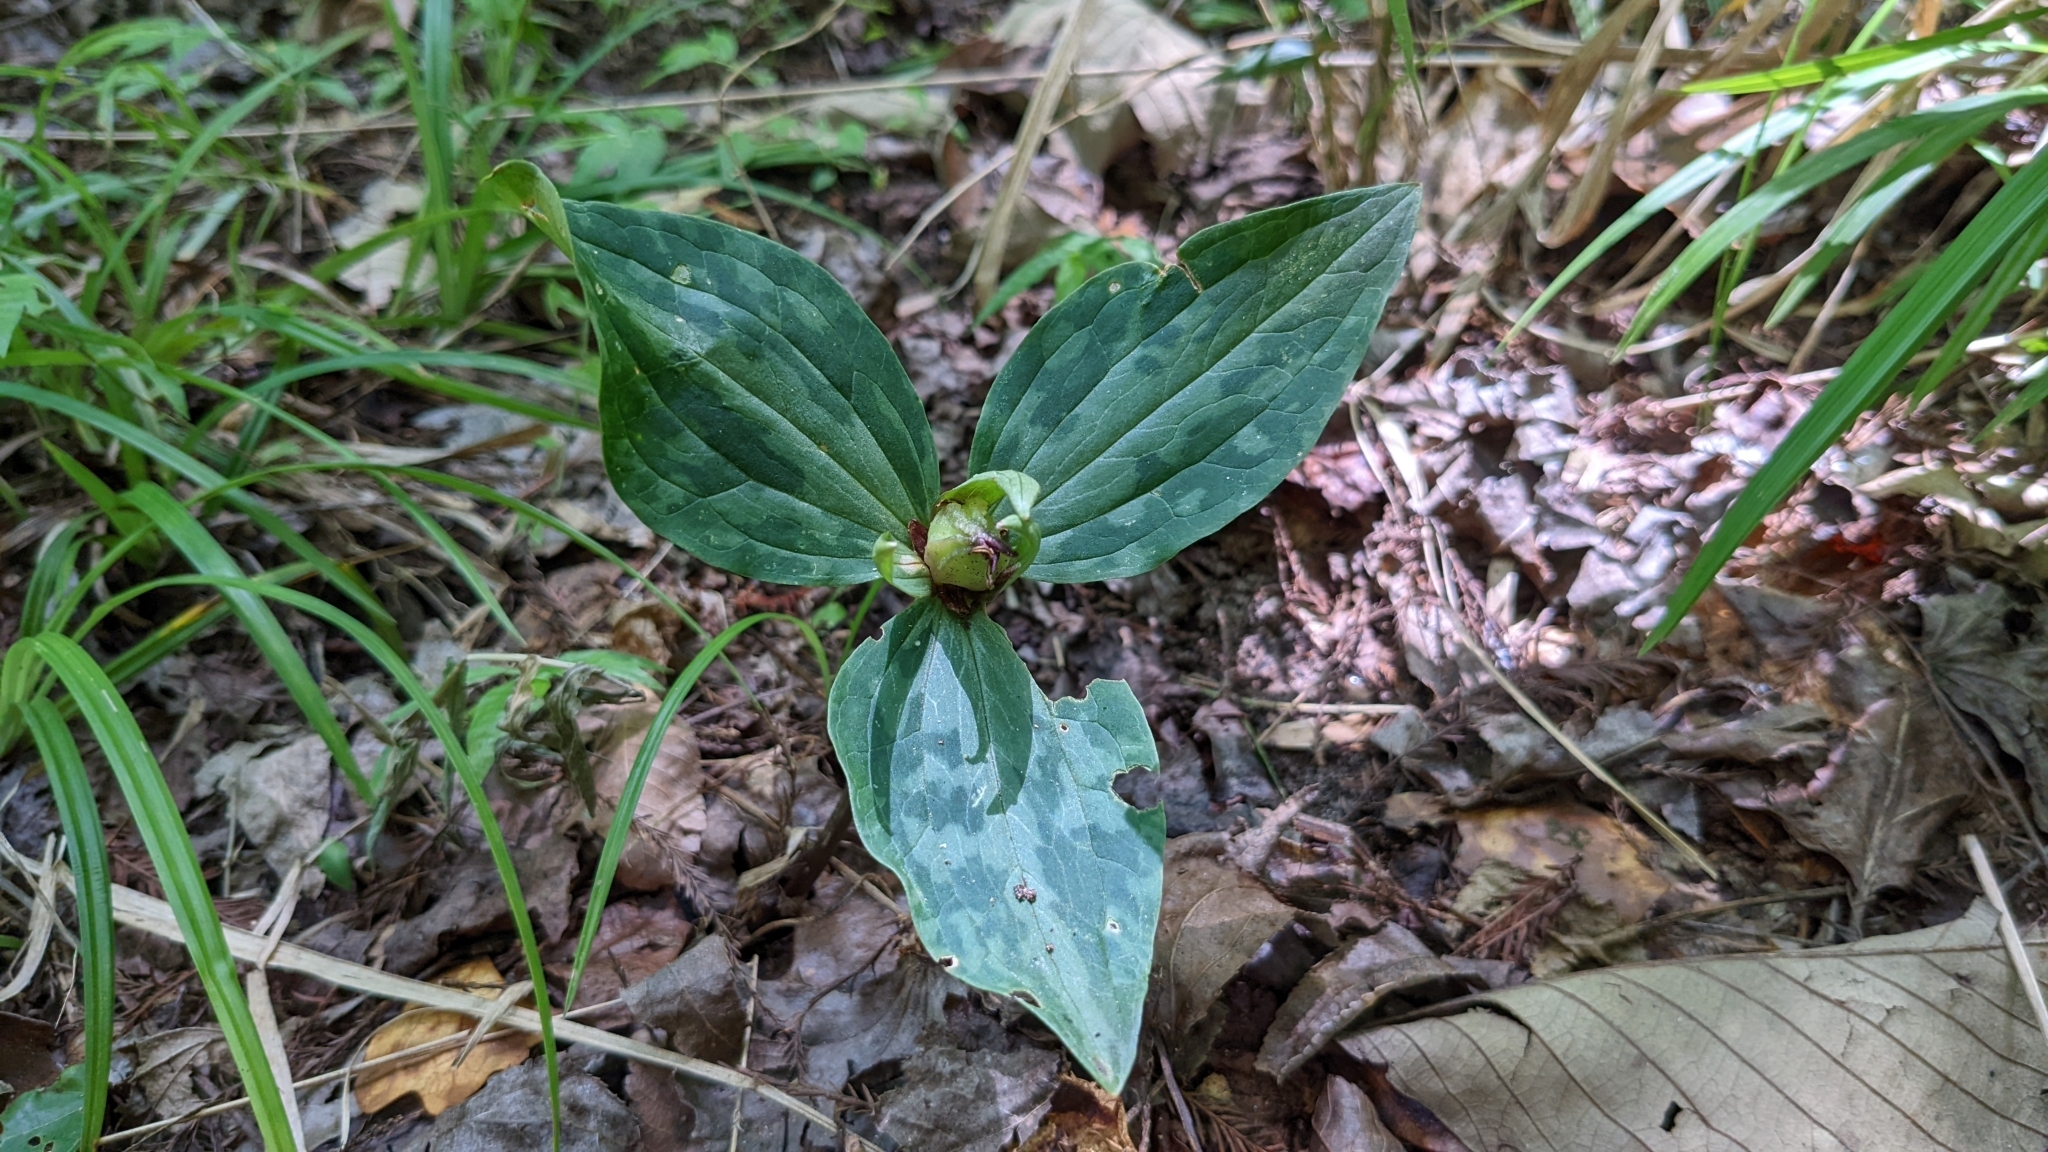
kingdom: Plantae
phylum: Tracheophyta
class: Liliopsida
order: Liliales
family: Melanthiaceae
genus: Trillium
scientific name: Trillium ludovicianum
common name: Louisiana toadshade
